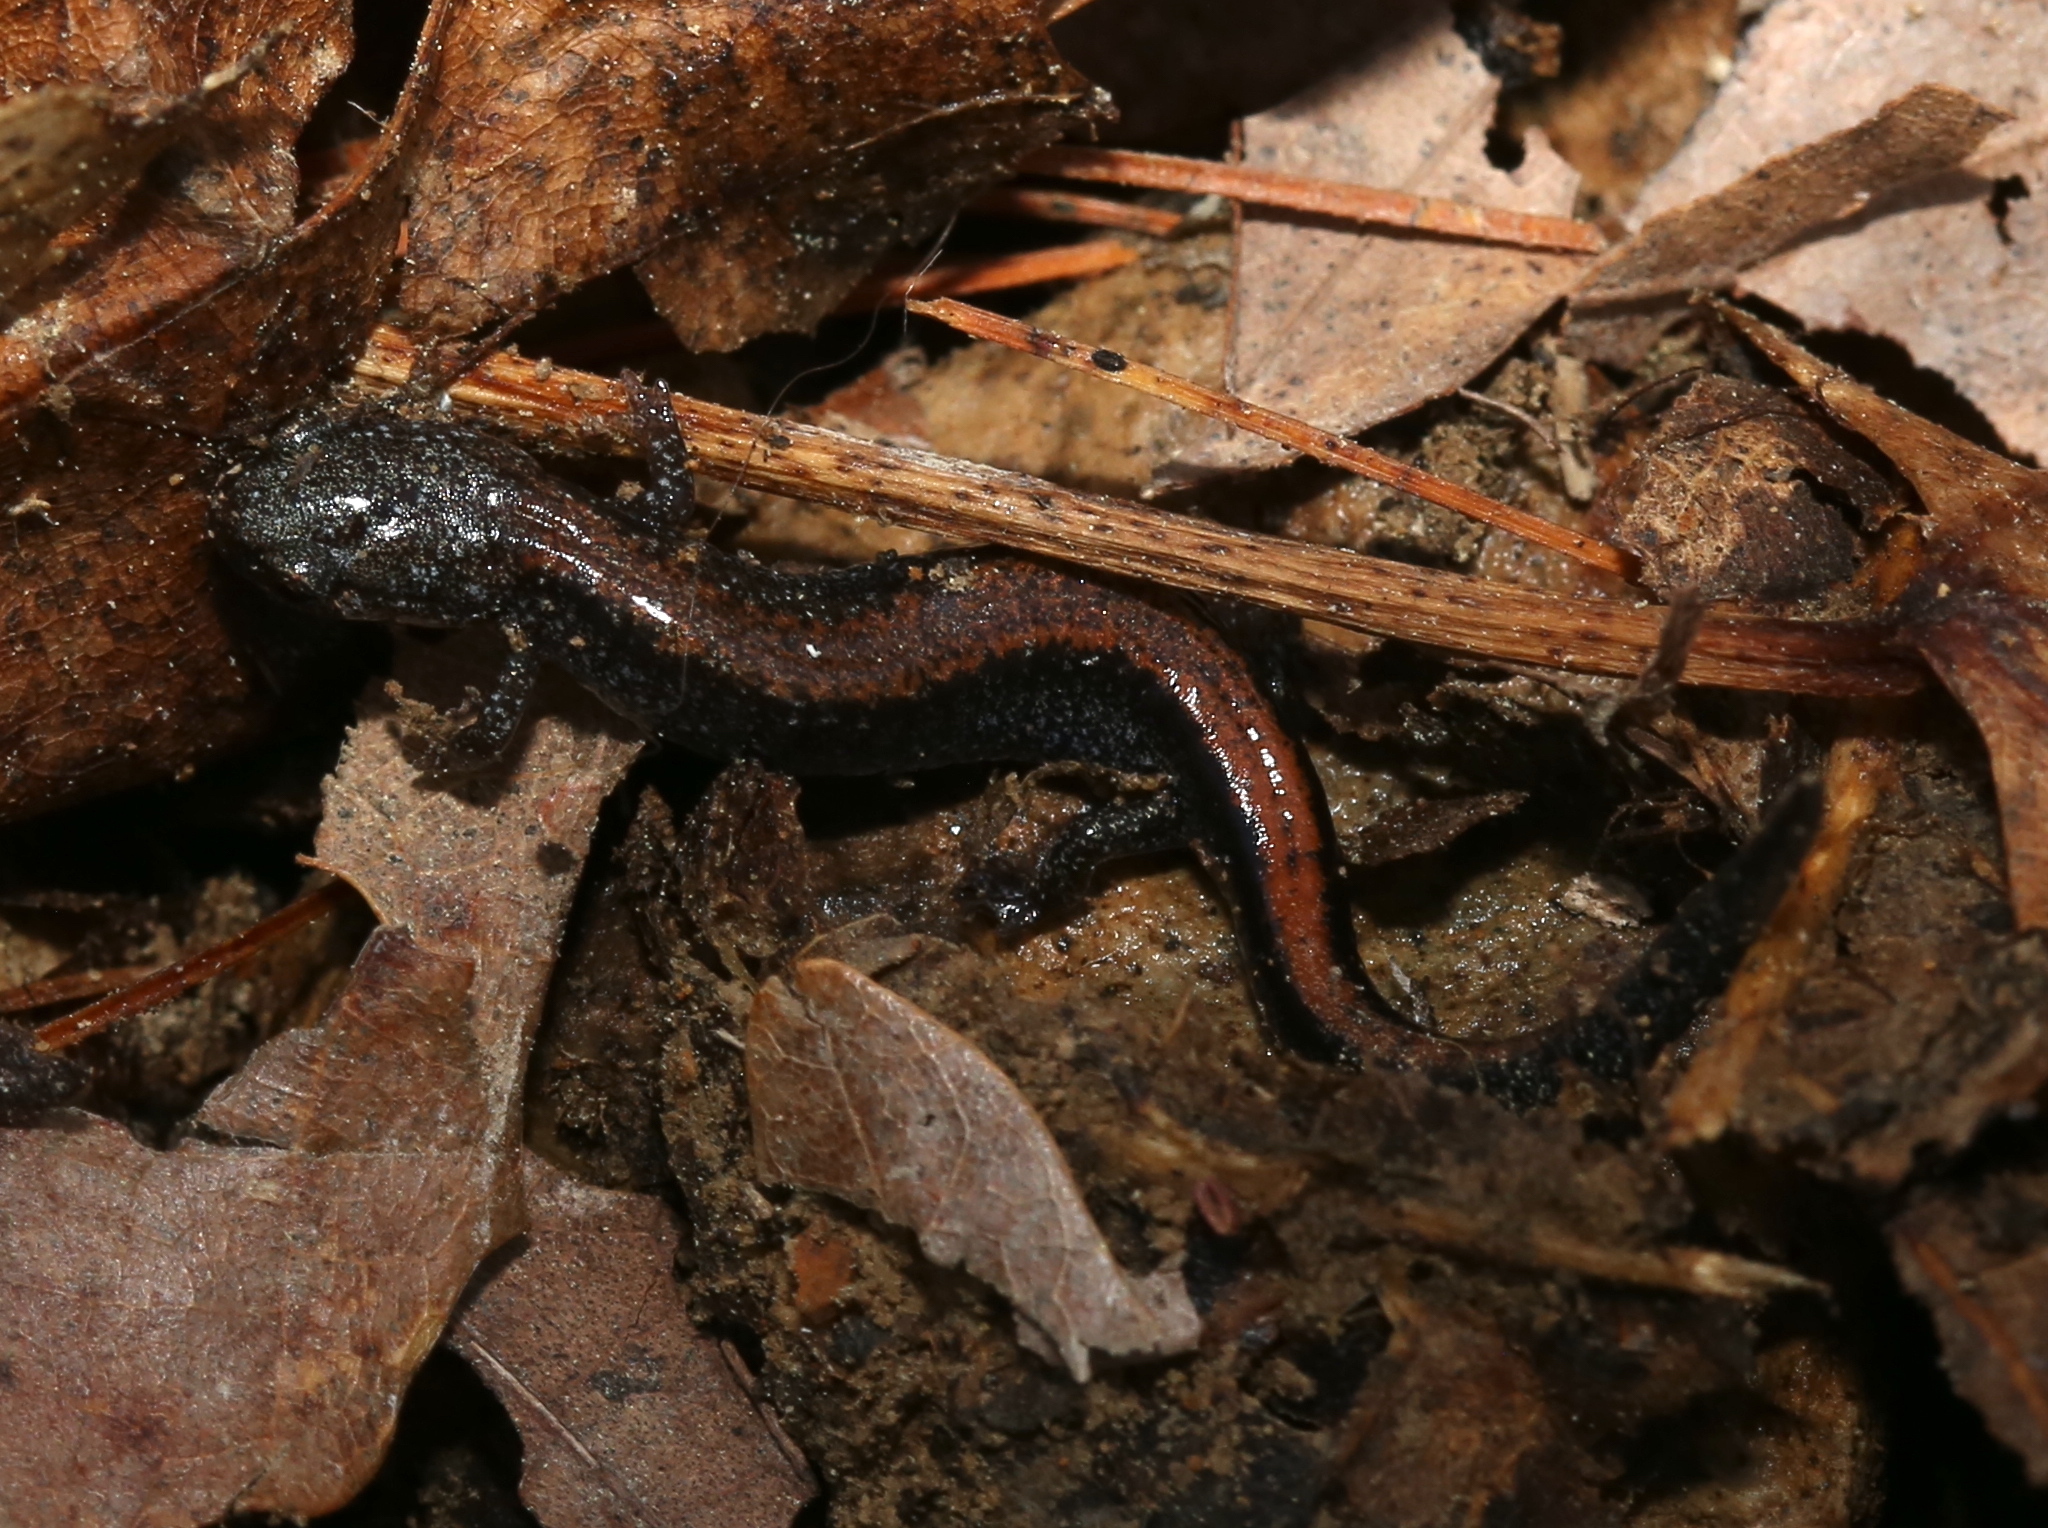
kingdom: Animalia
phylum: Chordata
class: Amphibia
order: Caudata
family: Plethodontidae
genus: Plethodon
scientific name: Plethodon cinereus
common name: Redback salamander
